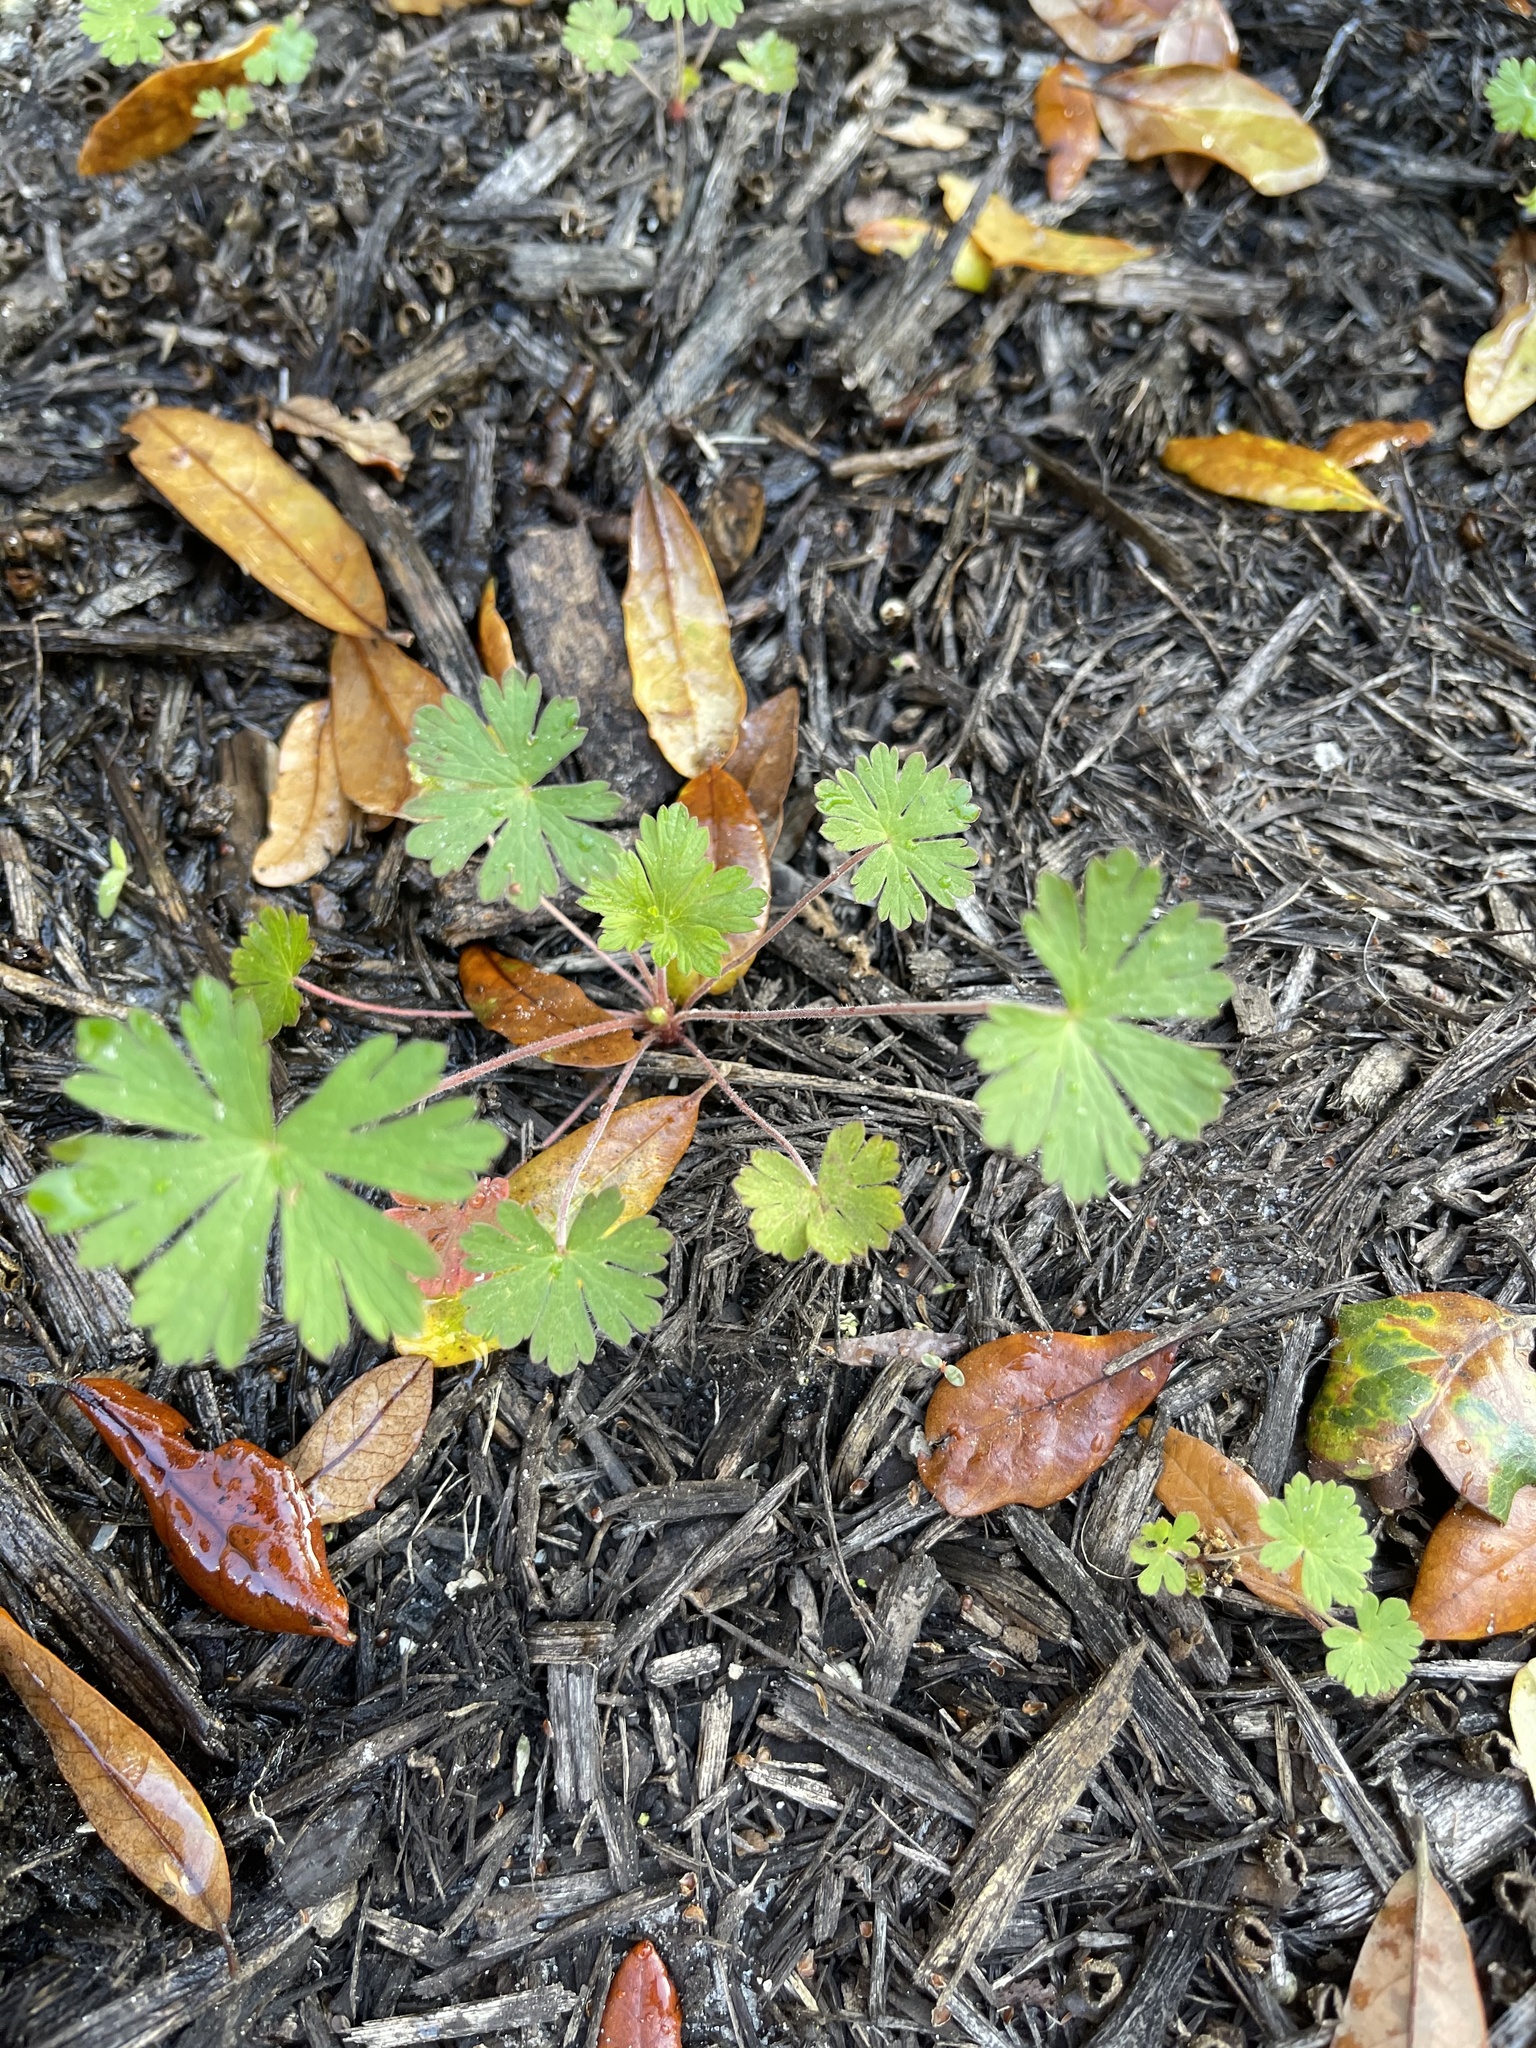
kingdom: Plantae
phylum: Tracheophyta
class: Magnoliopsida
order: Geraniales
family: Geraniaceae
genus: Geranium
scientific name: Geranium carolinianum
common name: Carolina crane's-bill
